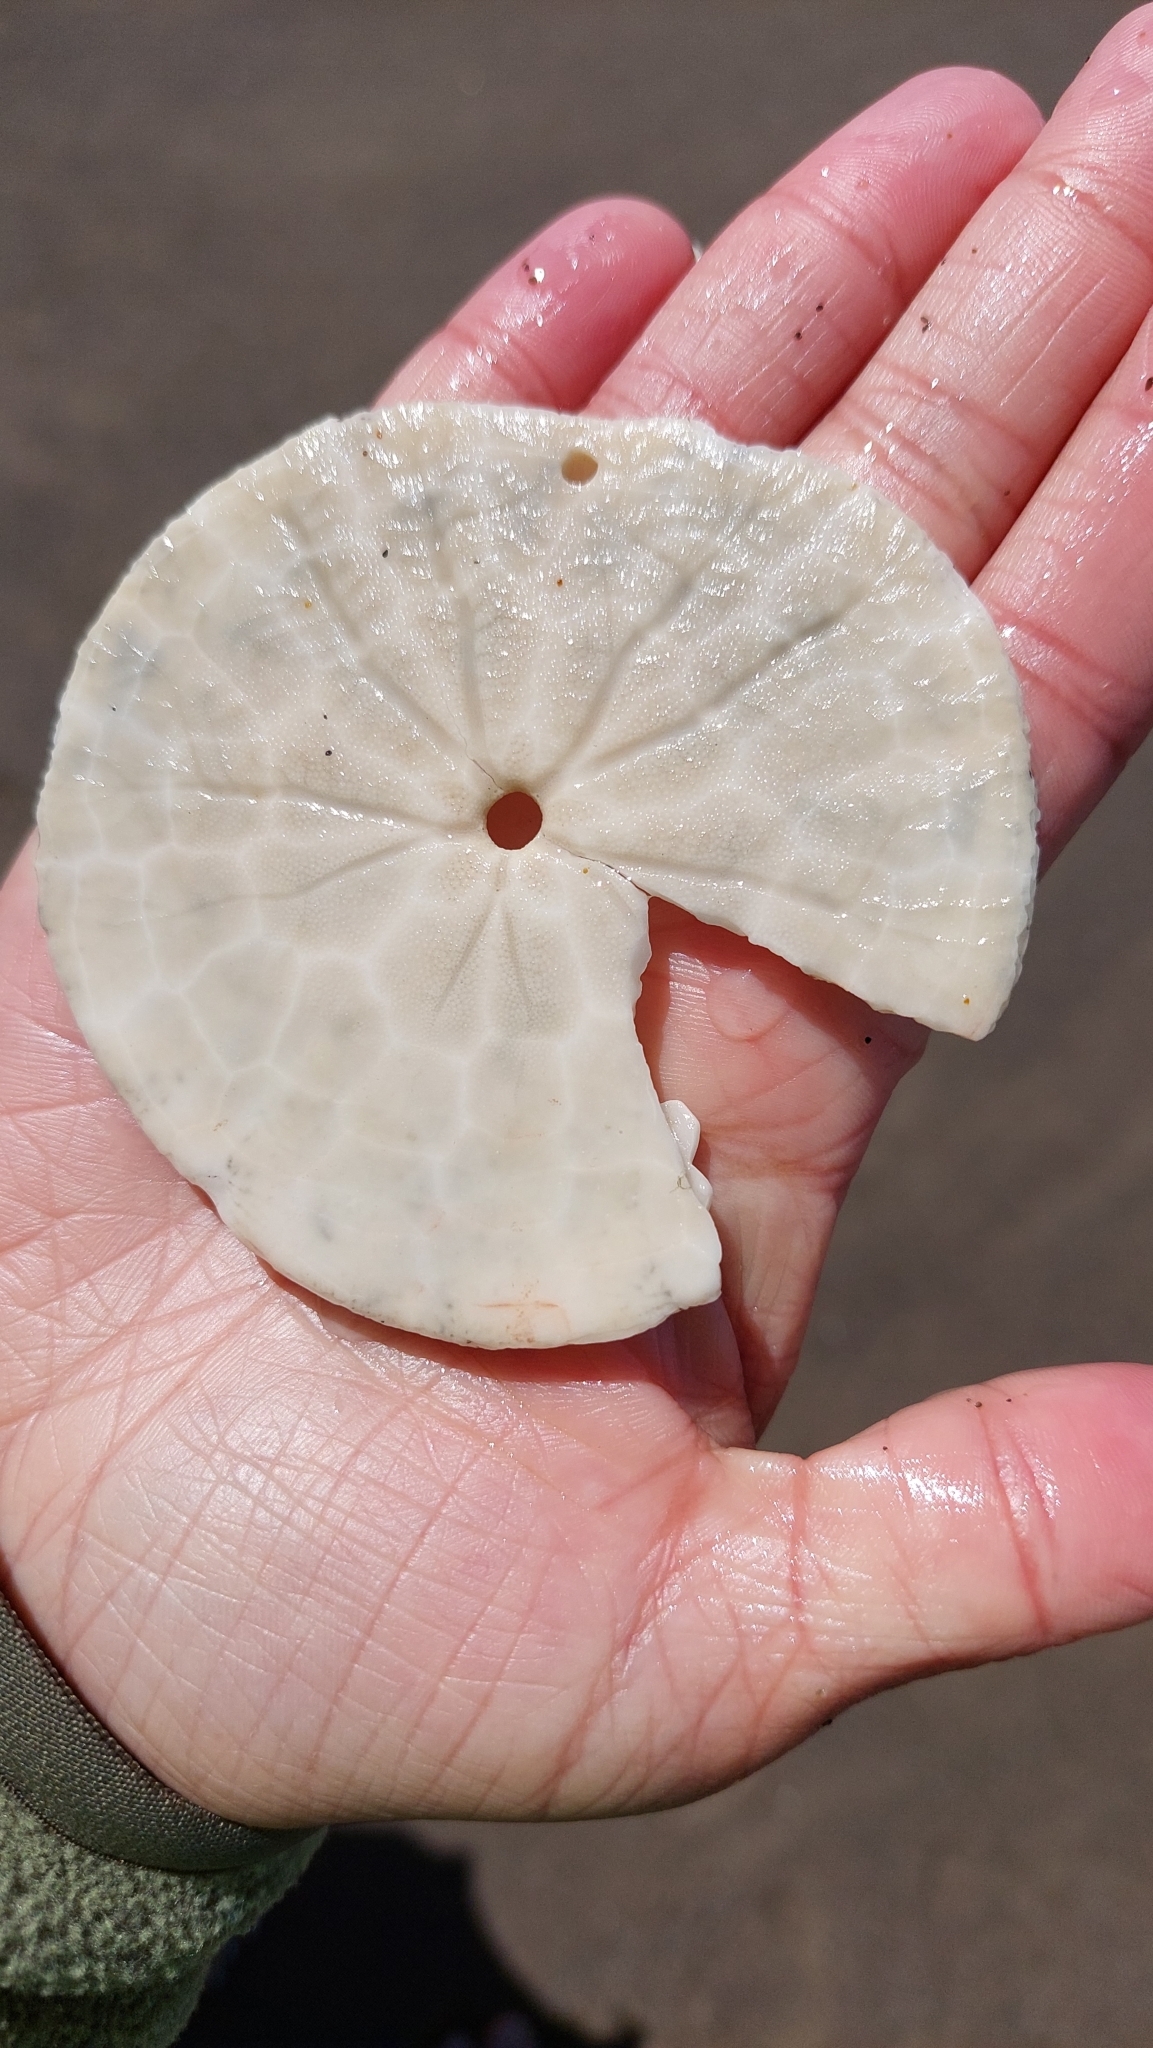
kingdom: Animalia
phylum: Echinodermata
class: Echinoidea
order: Echinolampadacea
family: Dendrasteridae
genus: Dendraster
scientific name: Dendraster excentricus
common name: Eccentric sand dollar sea urchin
